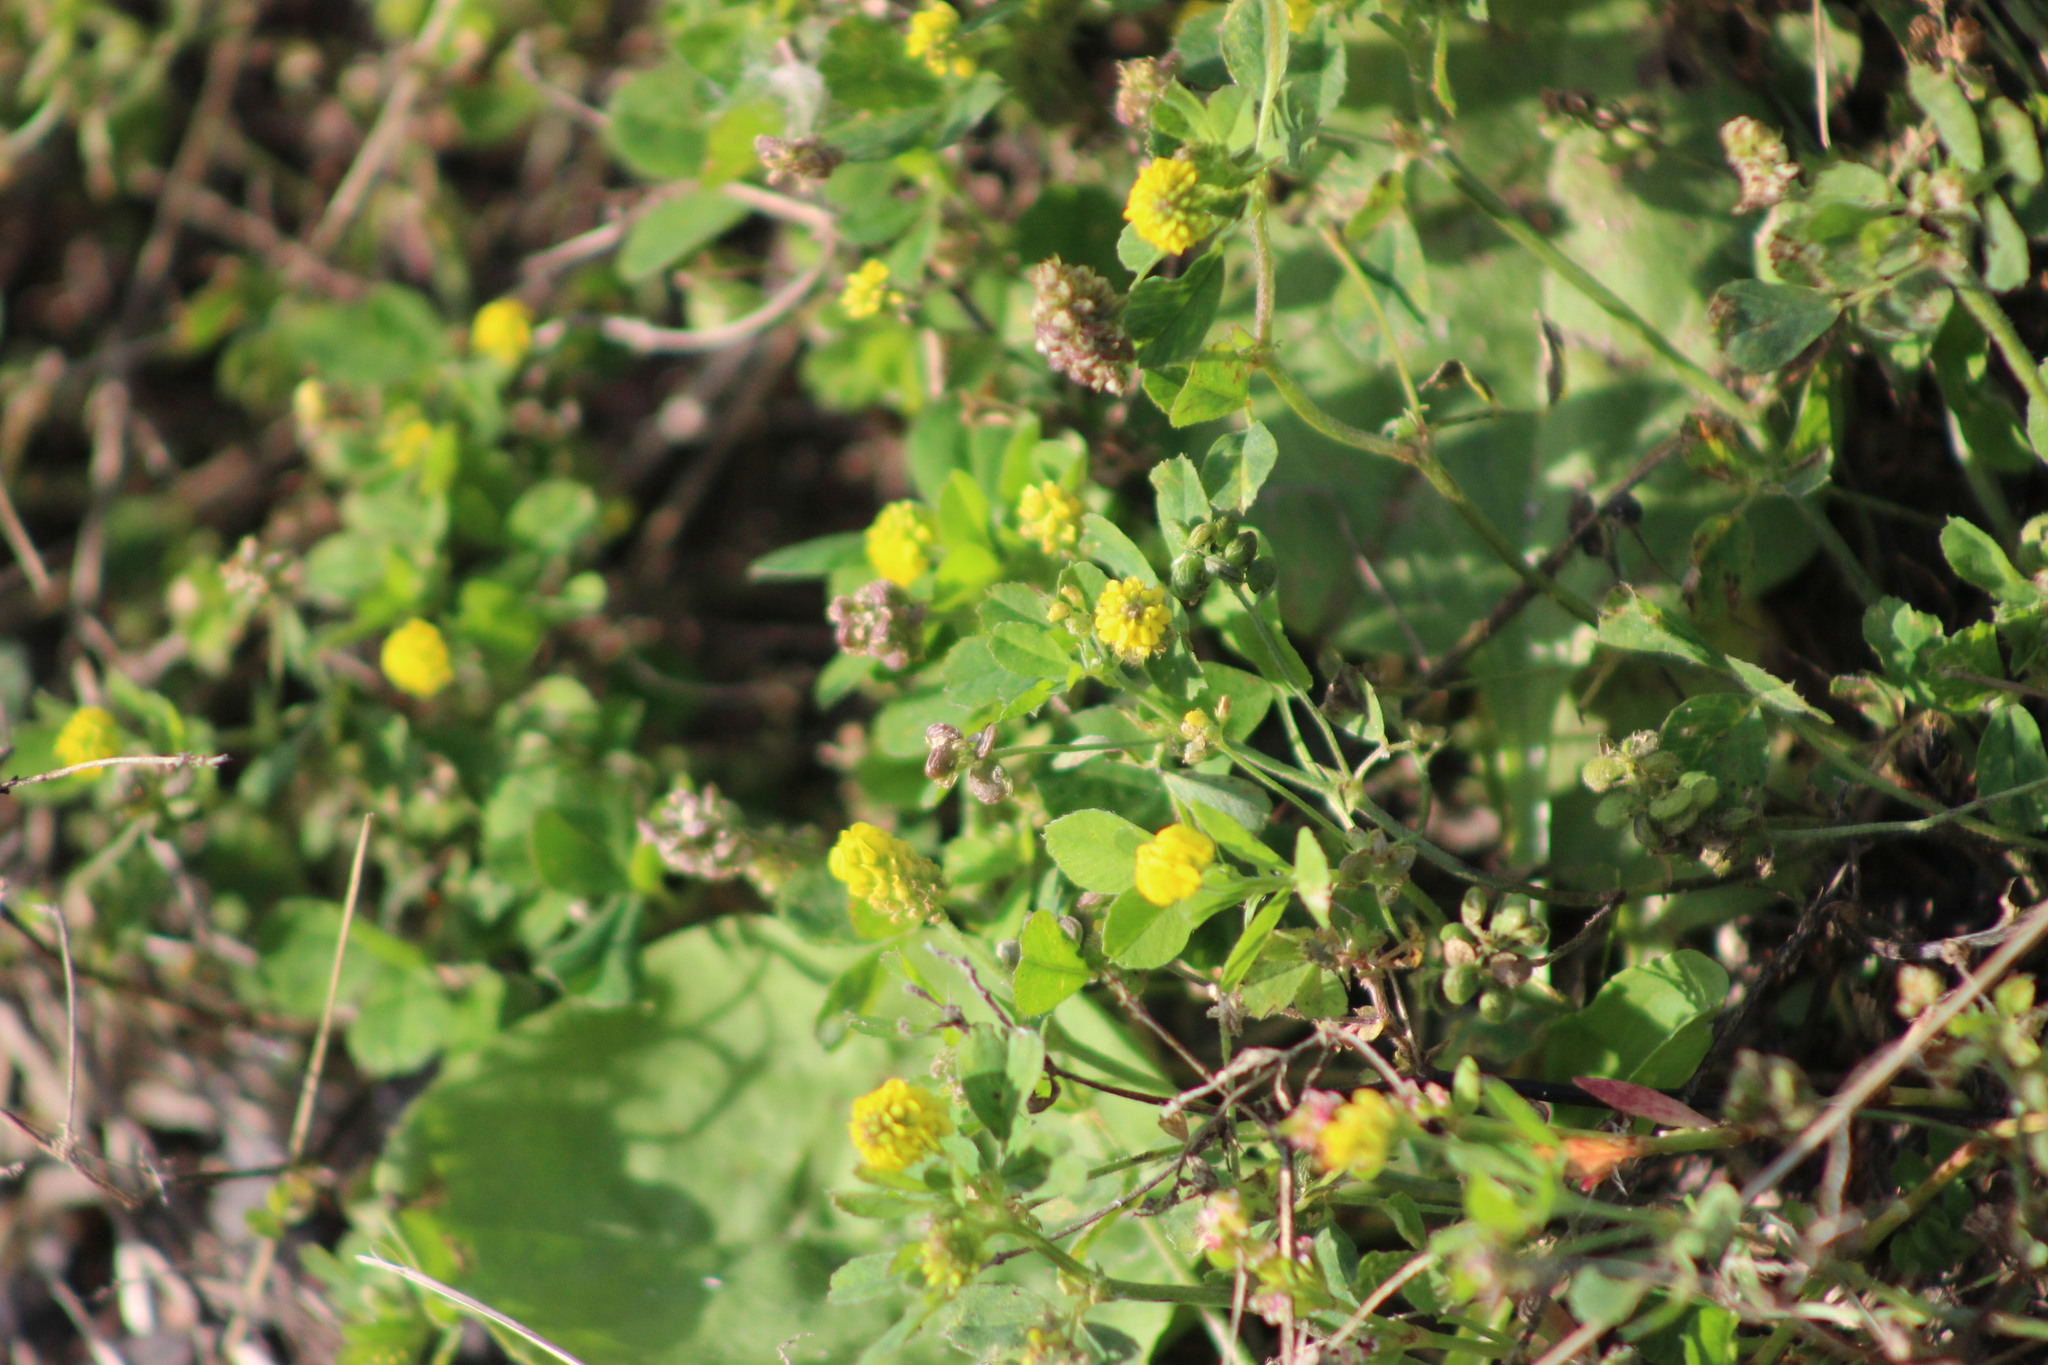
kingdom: Plantae
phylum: Tracheophyta
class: Magnoliopsida
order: Fabales
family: Fabaceae
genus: Medicago
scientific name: Medicago lupulina
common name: Black medick
